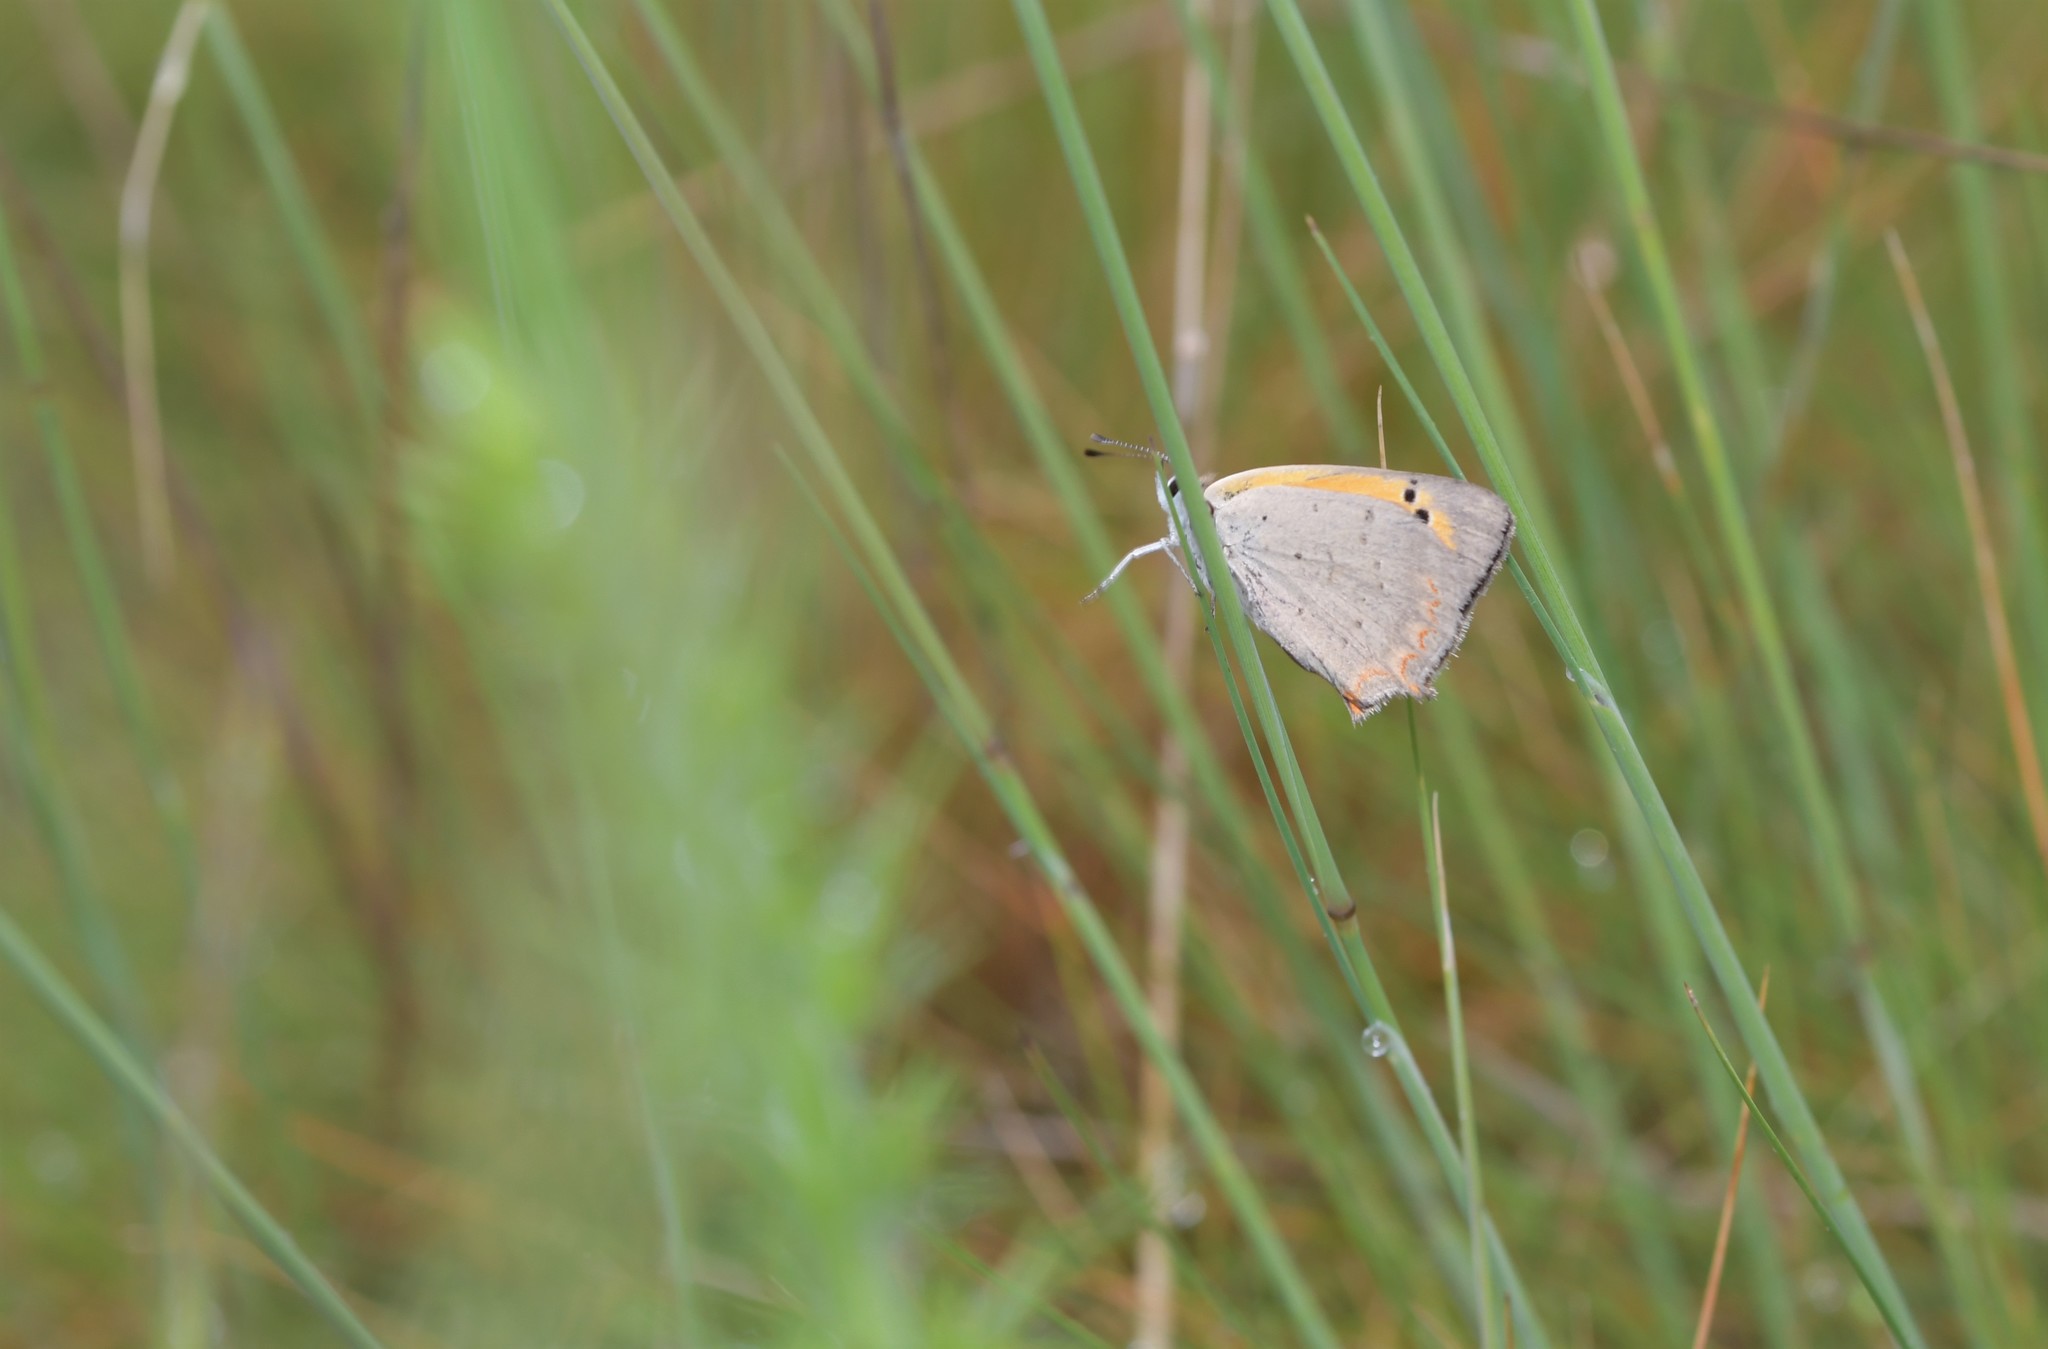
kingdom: Animalia
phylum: Arthropoda
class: Insecta
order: Lepidoptera
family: Lycaenidae
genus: Lycaena
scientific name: Lycaena phlaeas
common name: Small copper
